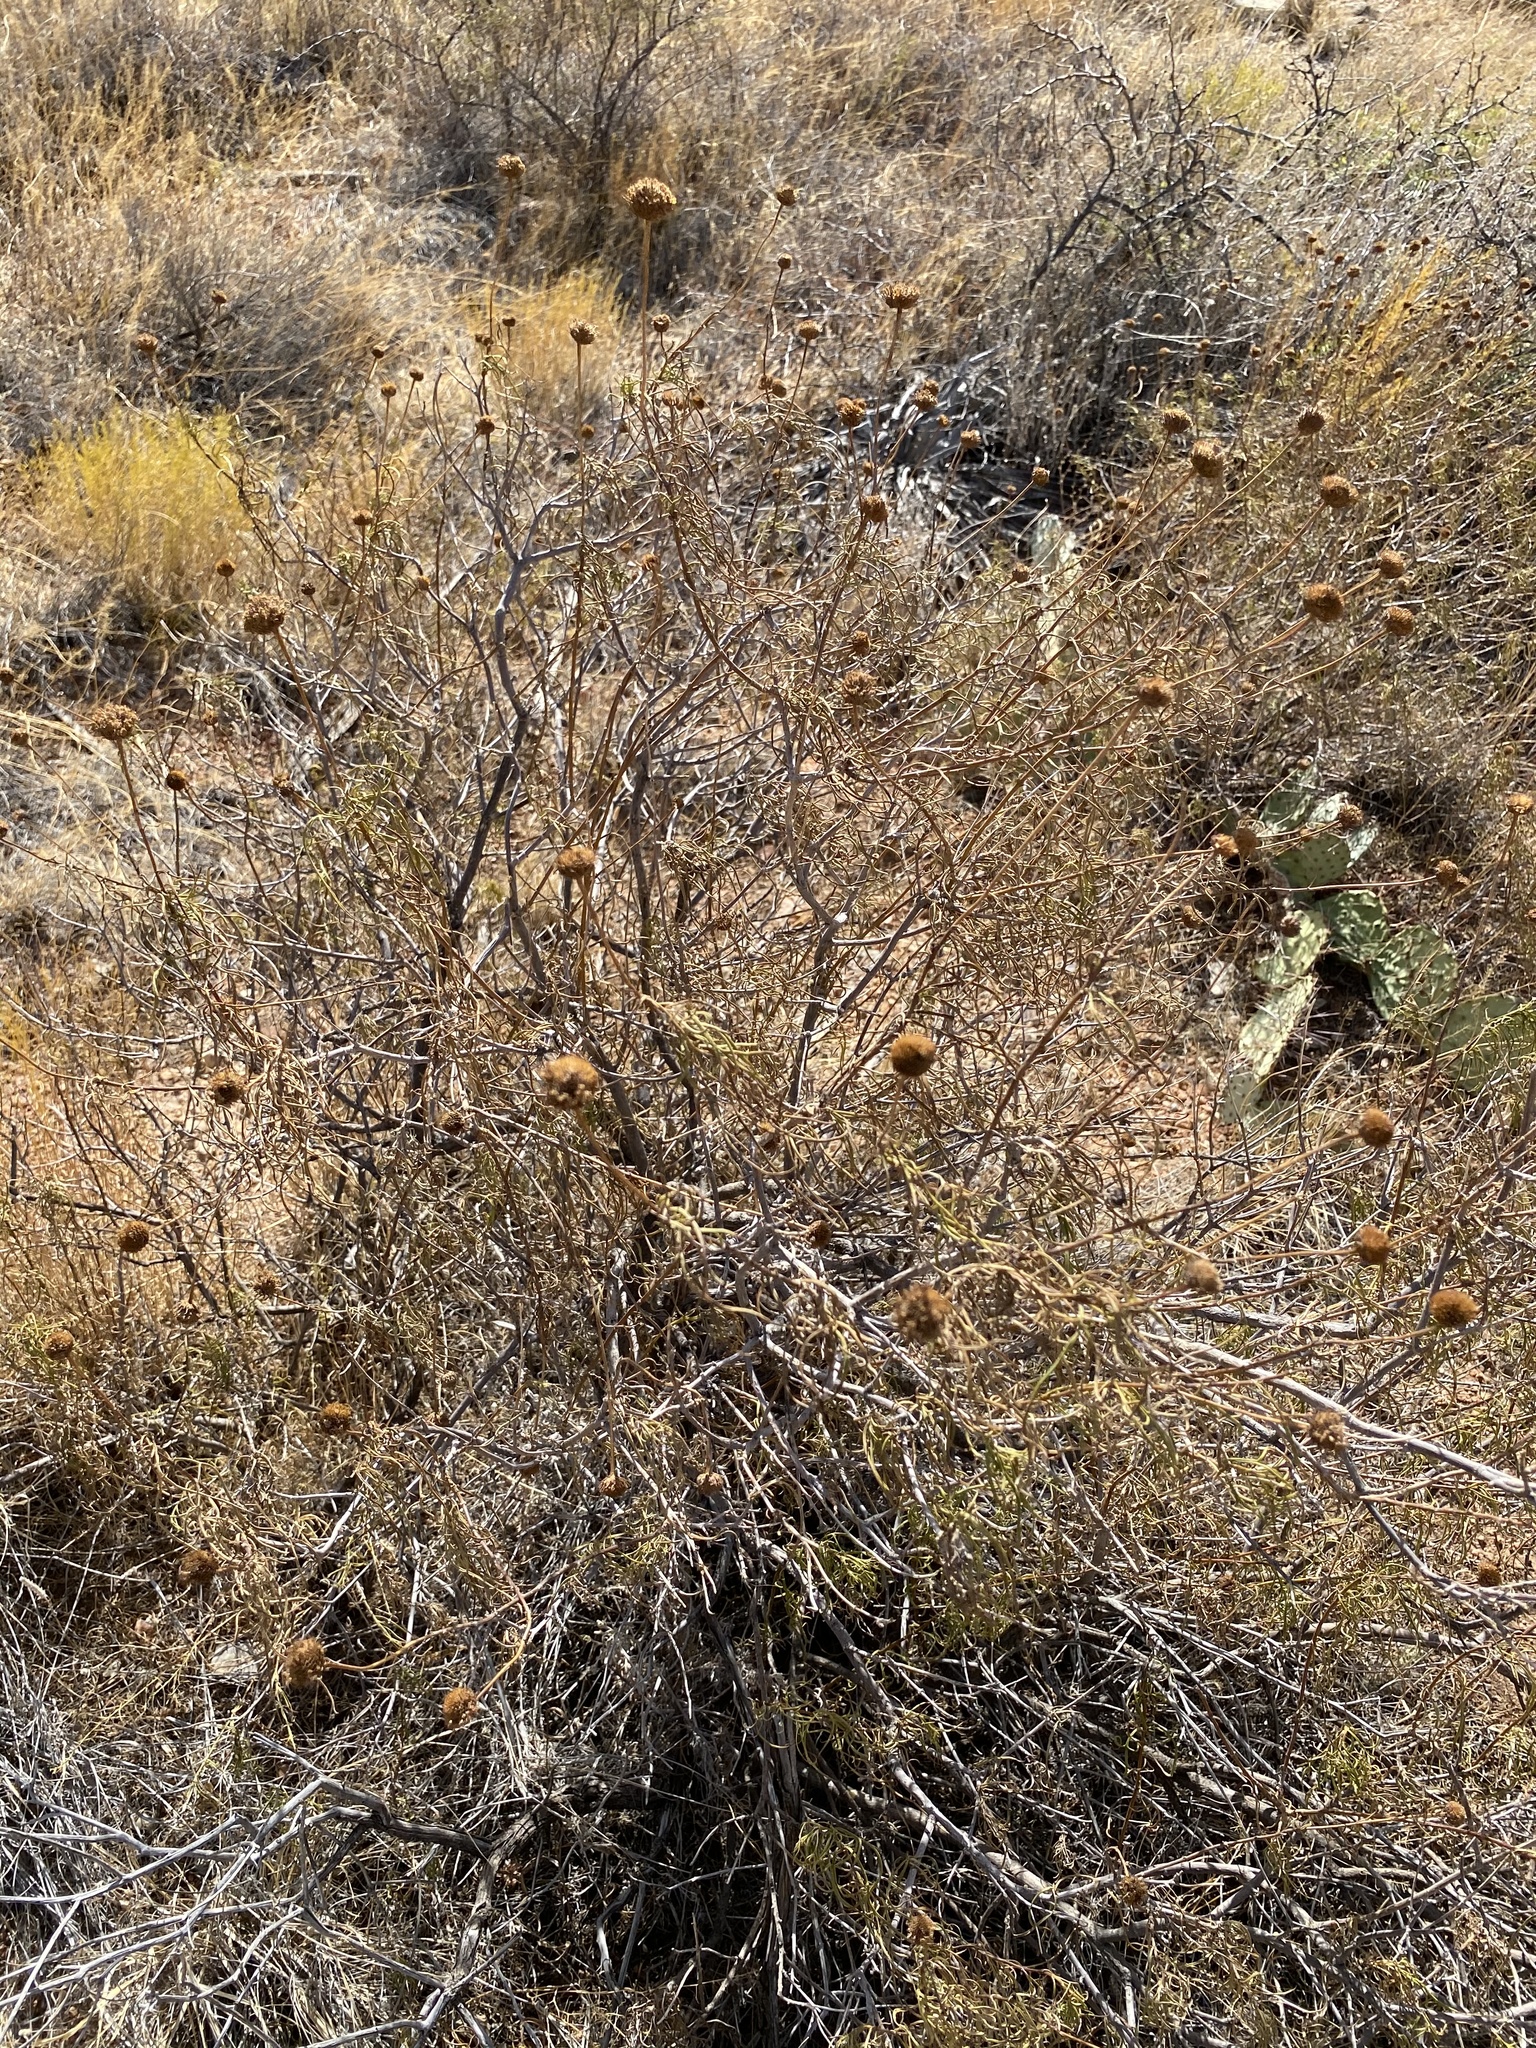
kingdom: Plantae
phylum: Tracheophyta
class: Magnoliopsida
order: Asterales
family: Asteraceae
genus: Sidneya
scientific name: Sidneya tenuifolia
